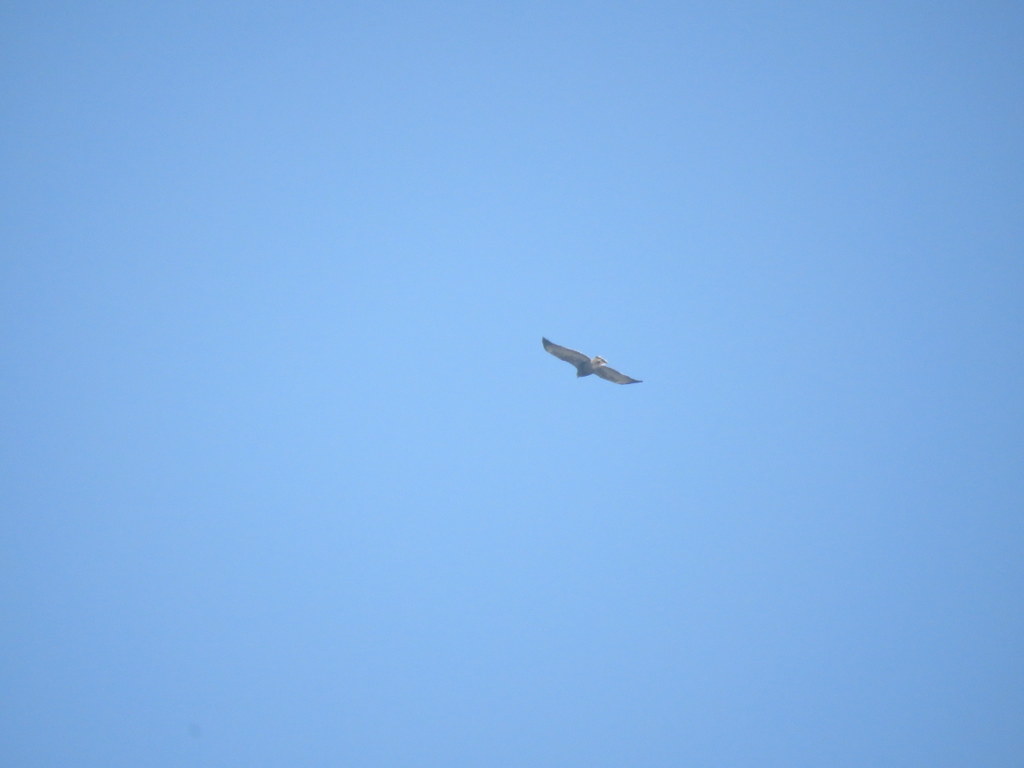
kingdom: Animalia
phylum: Chordata
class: Aves
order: Accipitriformes
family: Accipitridae
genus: Buteo
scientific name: Buteo polyosoma
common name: Variable hawk
